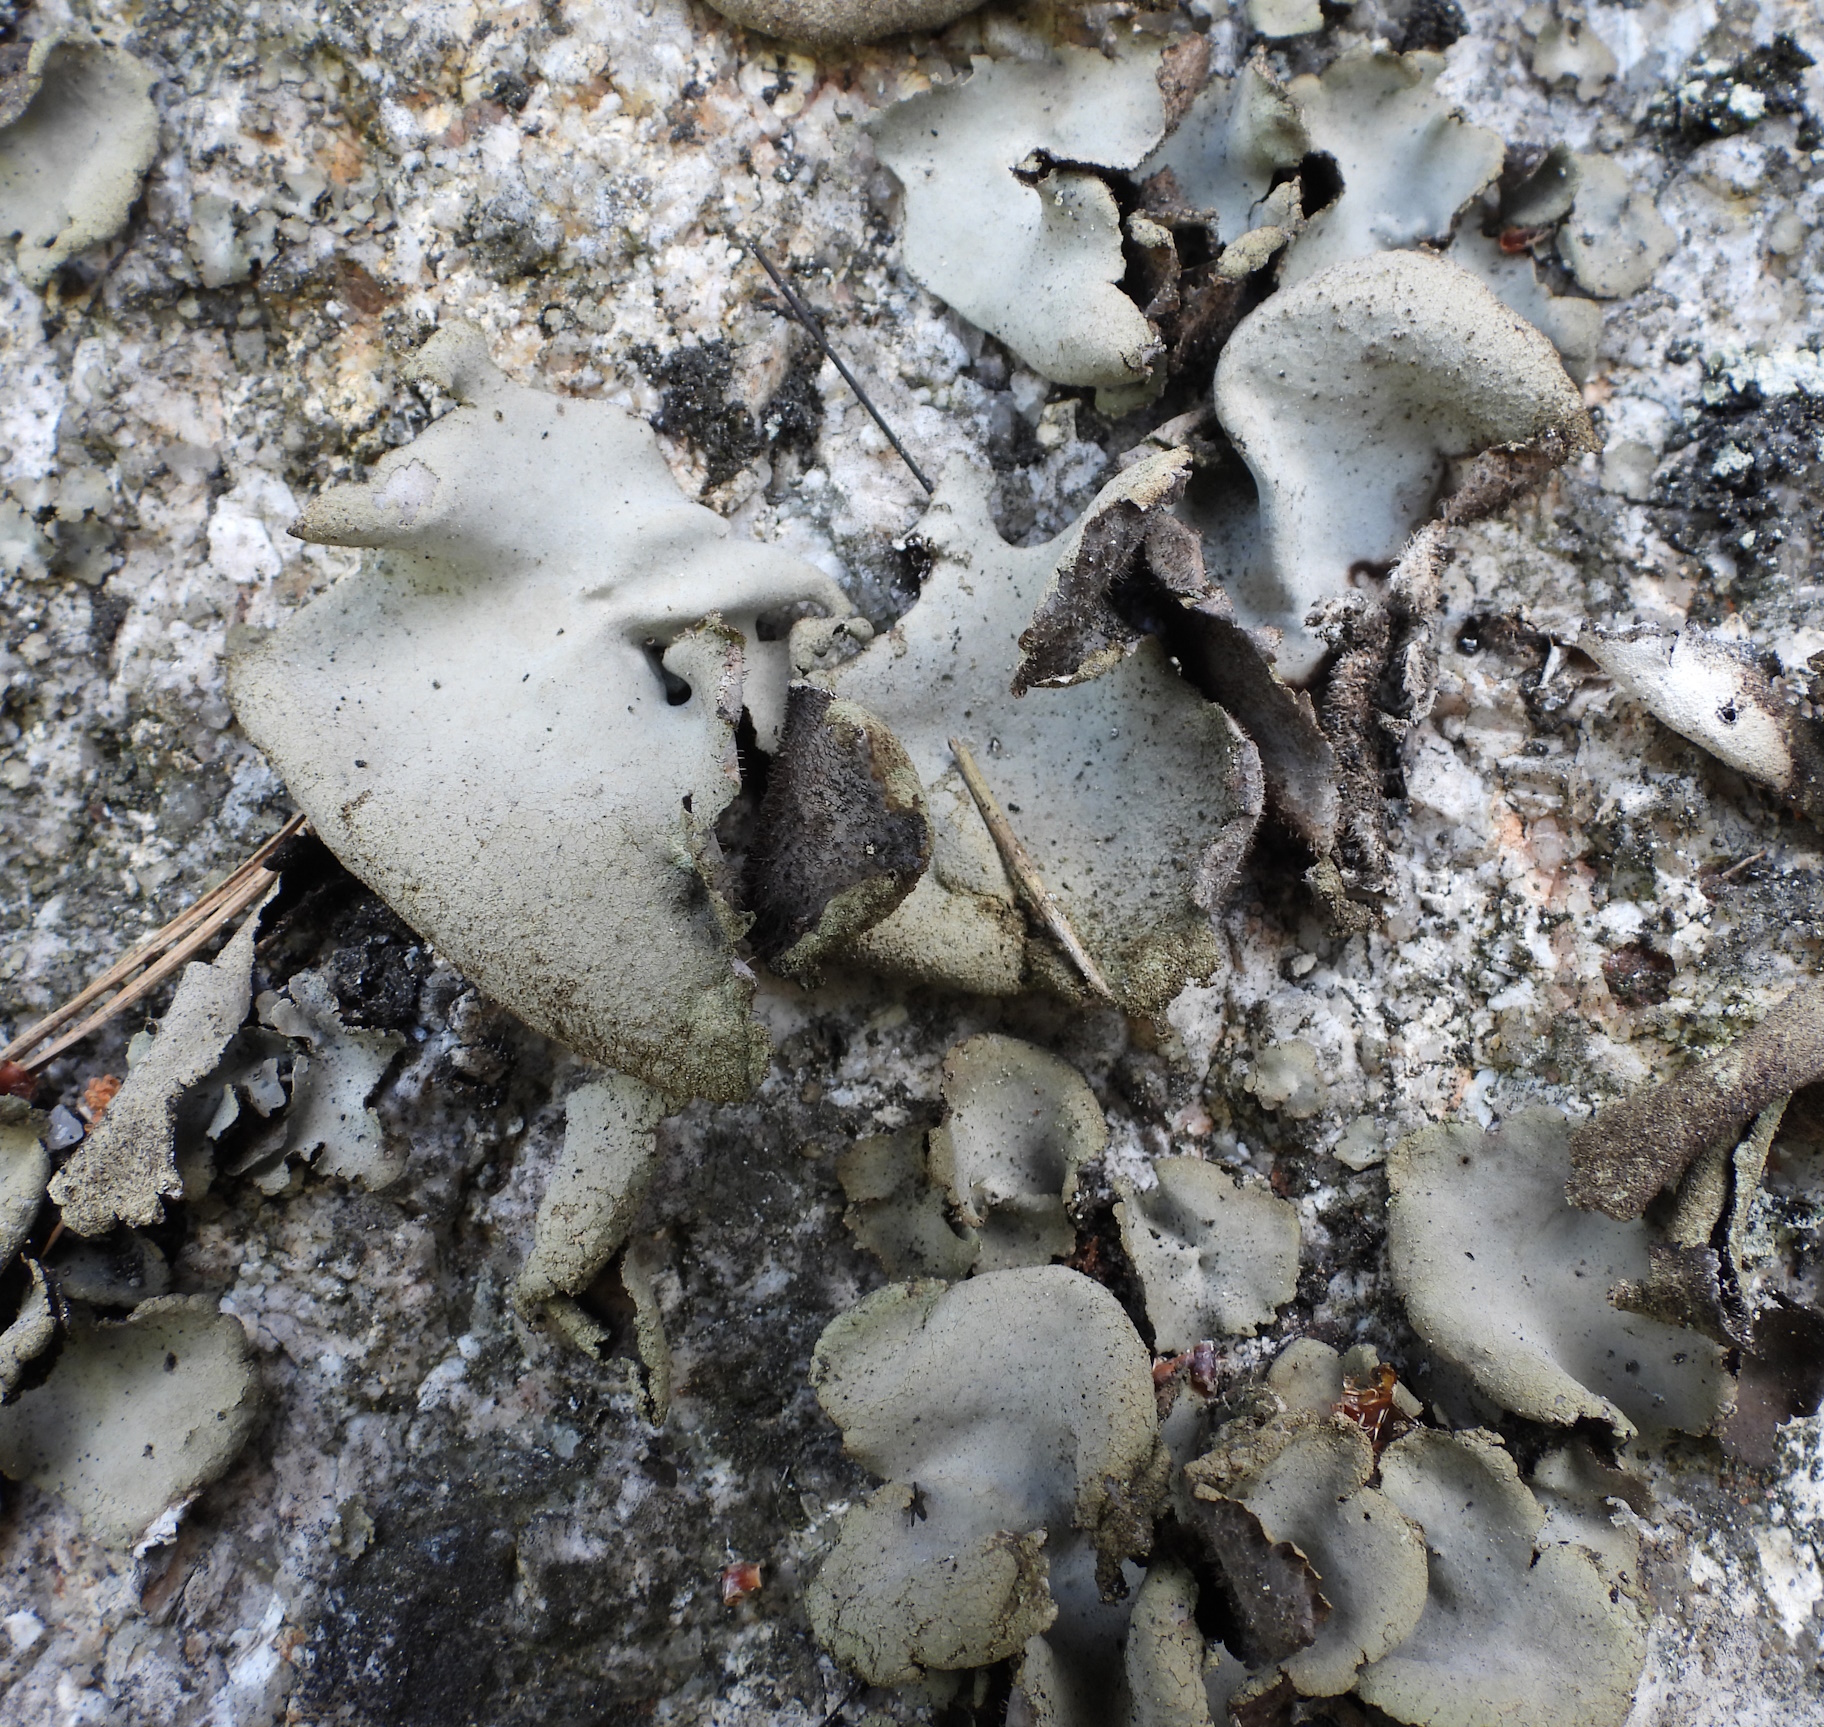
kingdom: Fungi
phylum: Ascomycota
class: Lecanoromycetes
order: Umbilicariales
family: Umbilicariaceae
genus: Umbilicaria
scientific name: Umbilicaria hirsuta
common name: Granulating rocktripe lichen
